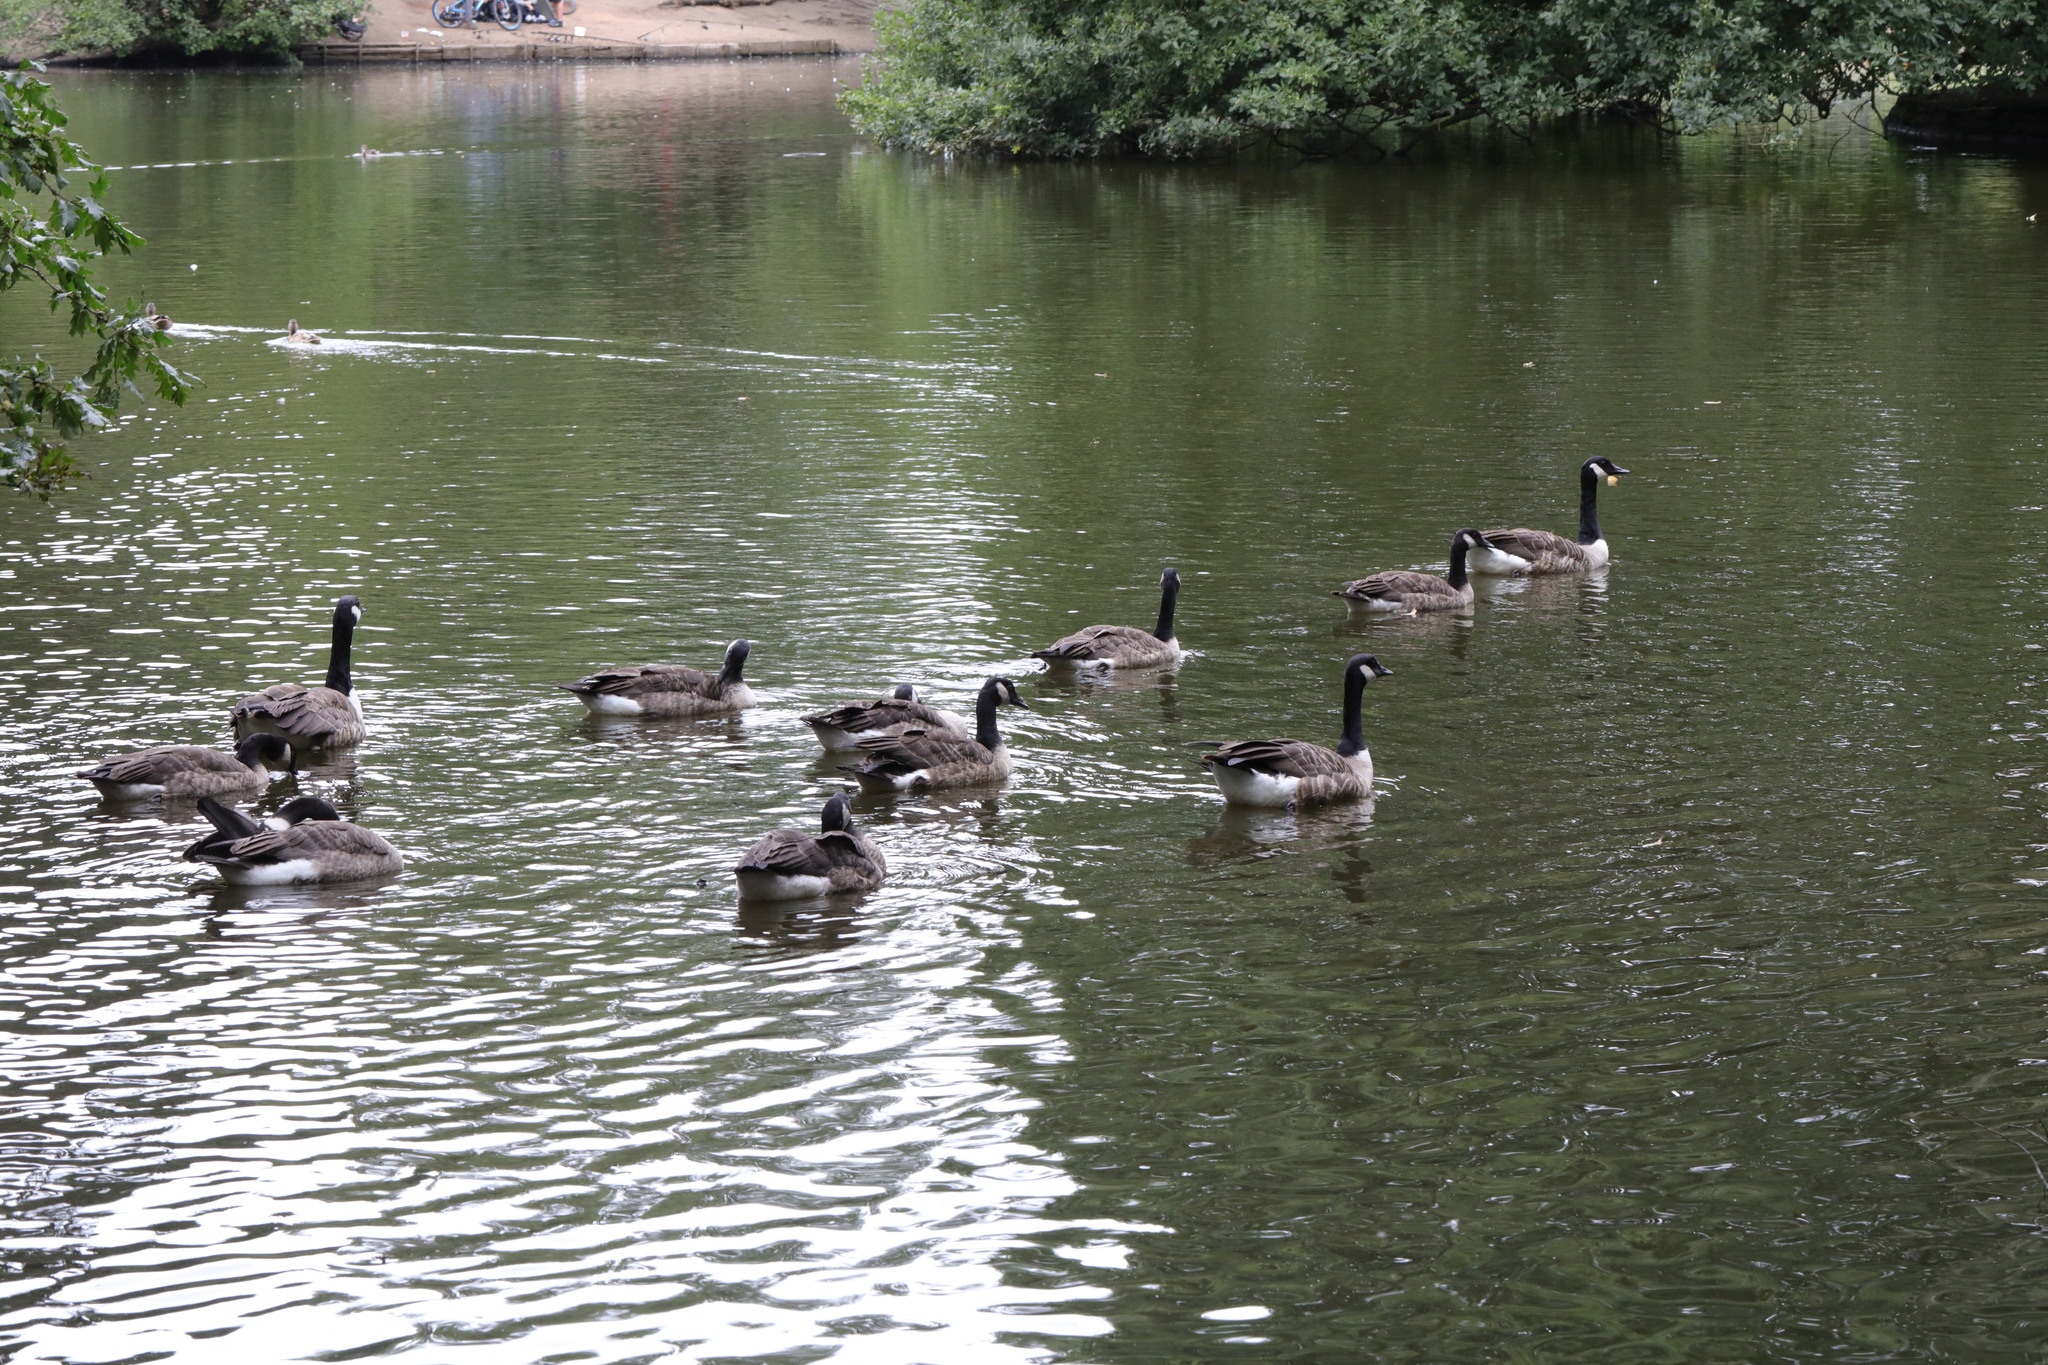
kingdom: Animalia
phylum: Chordata
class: Aves
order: Anseriformes
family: Anatidae
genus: Branta
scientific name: Branta canadensis
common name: Canada goose
